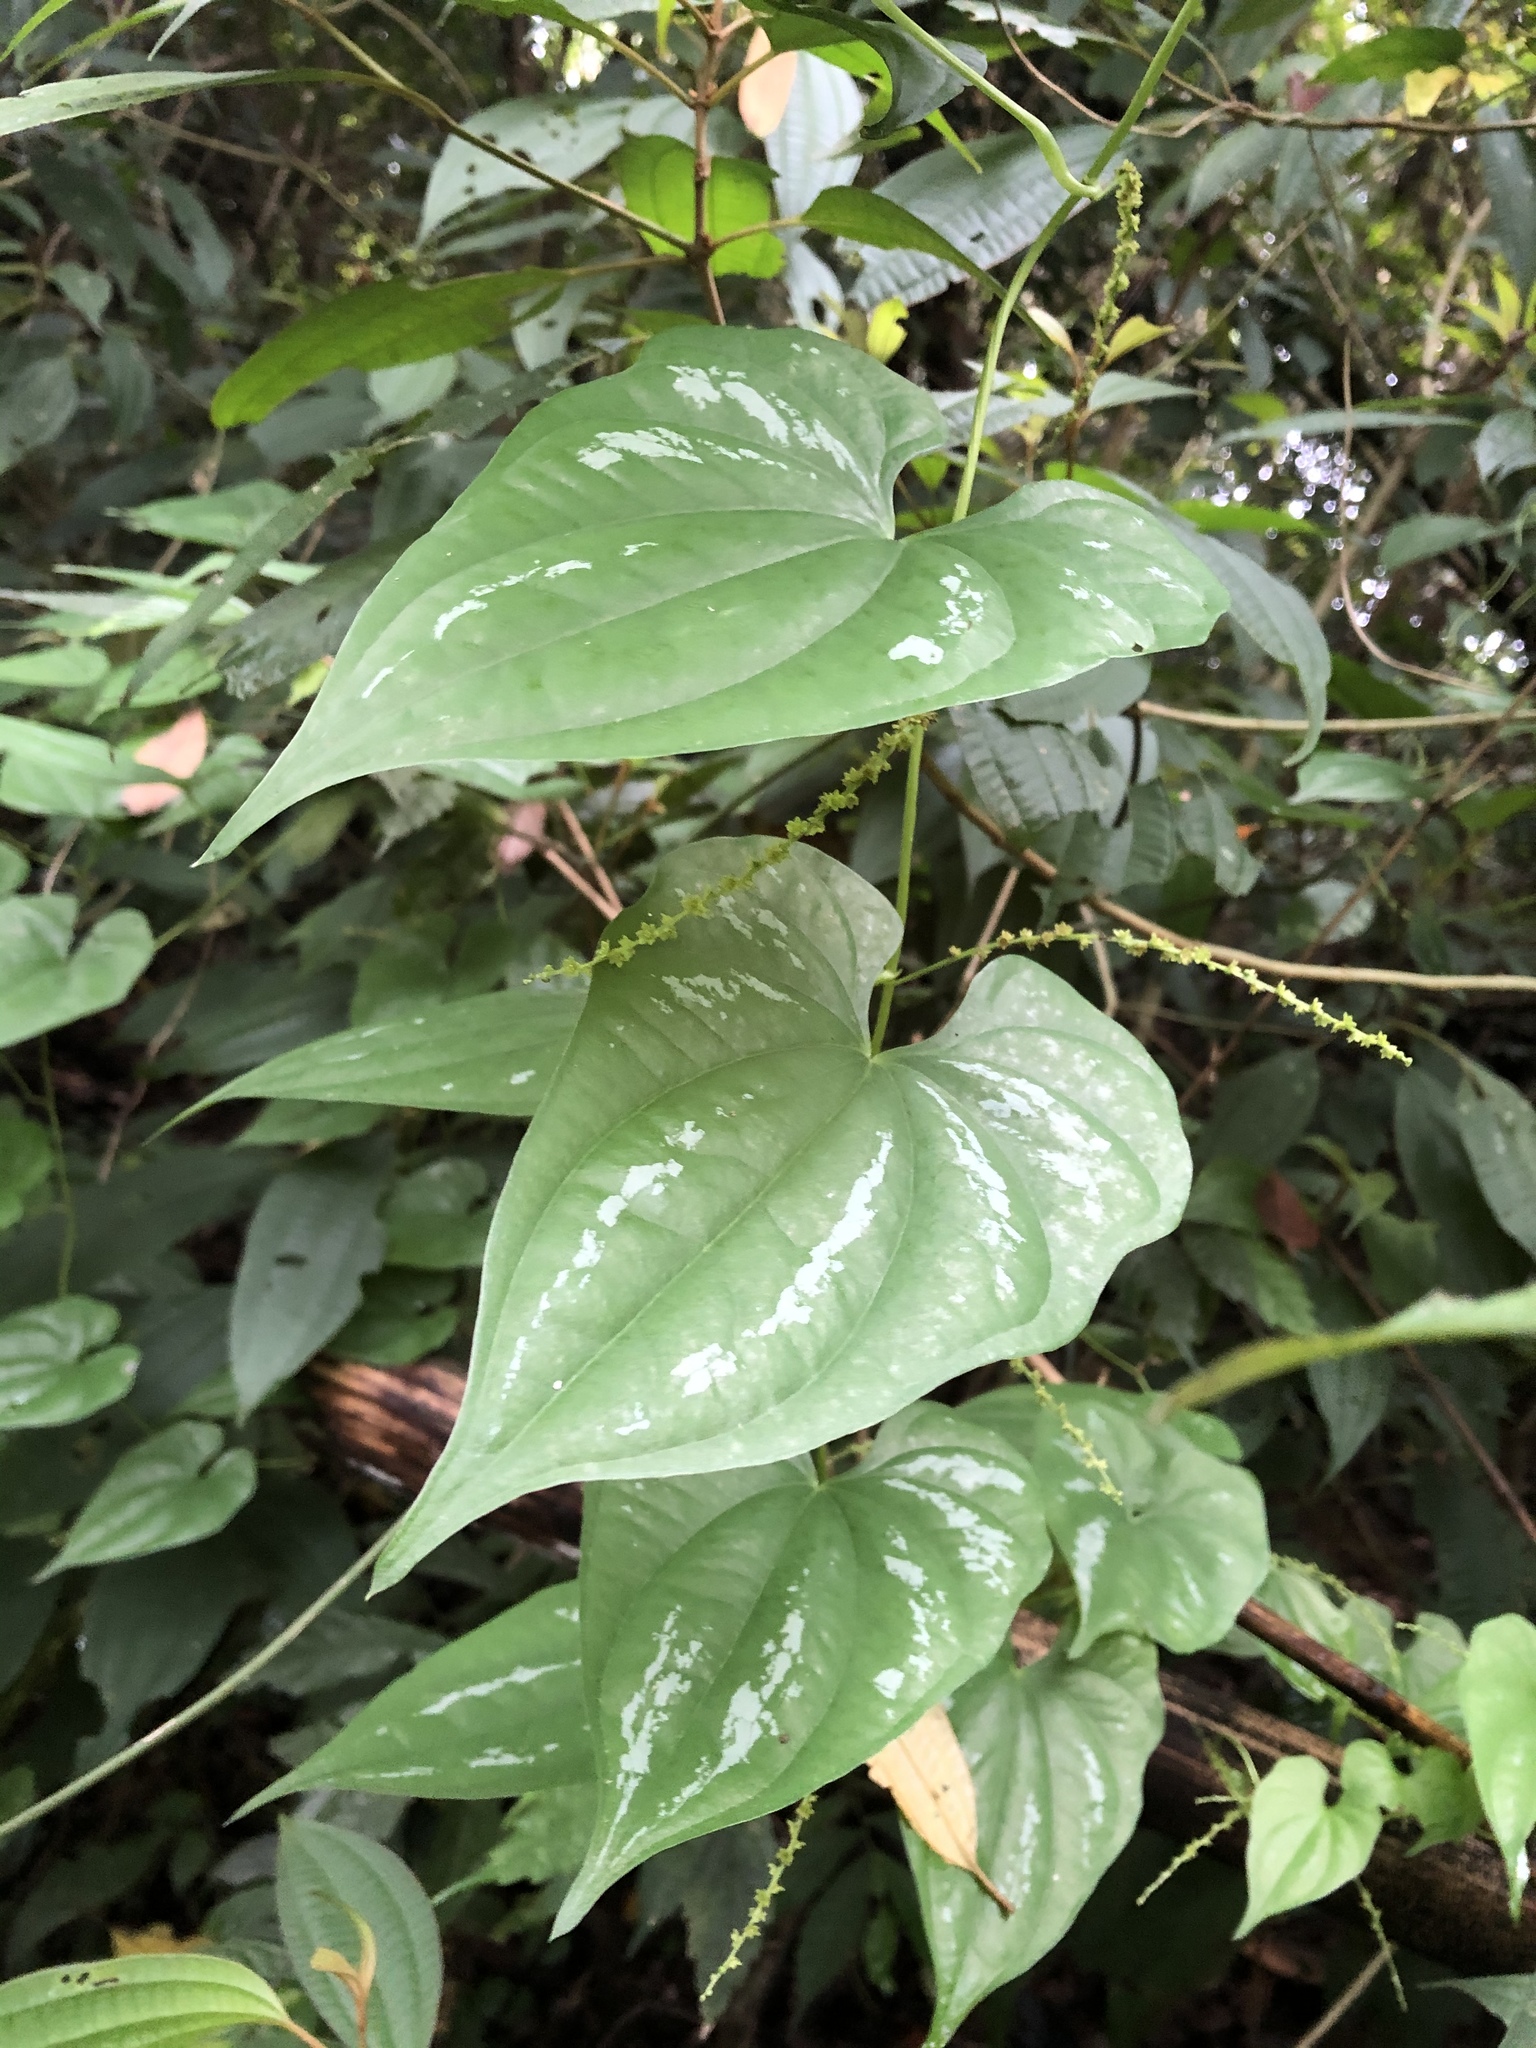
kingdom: Plantae
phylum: Tracheophyta
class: Liliopsida
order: Dioscoreales
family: Dioscoreaceae
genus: Dioscorea
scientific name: Dioscorea collettii
